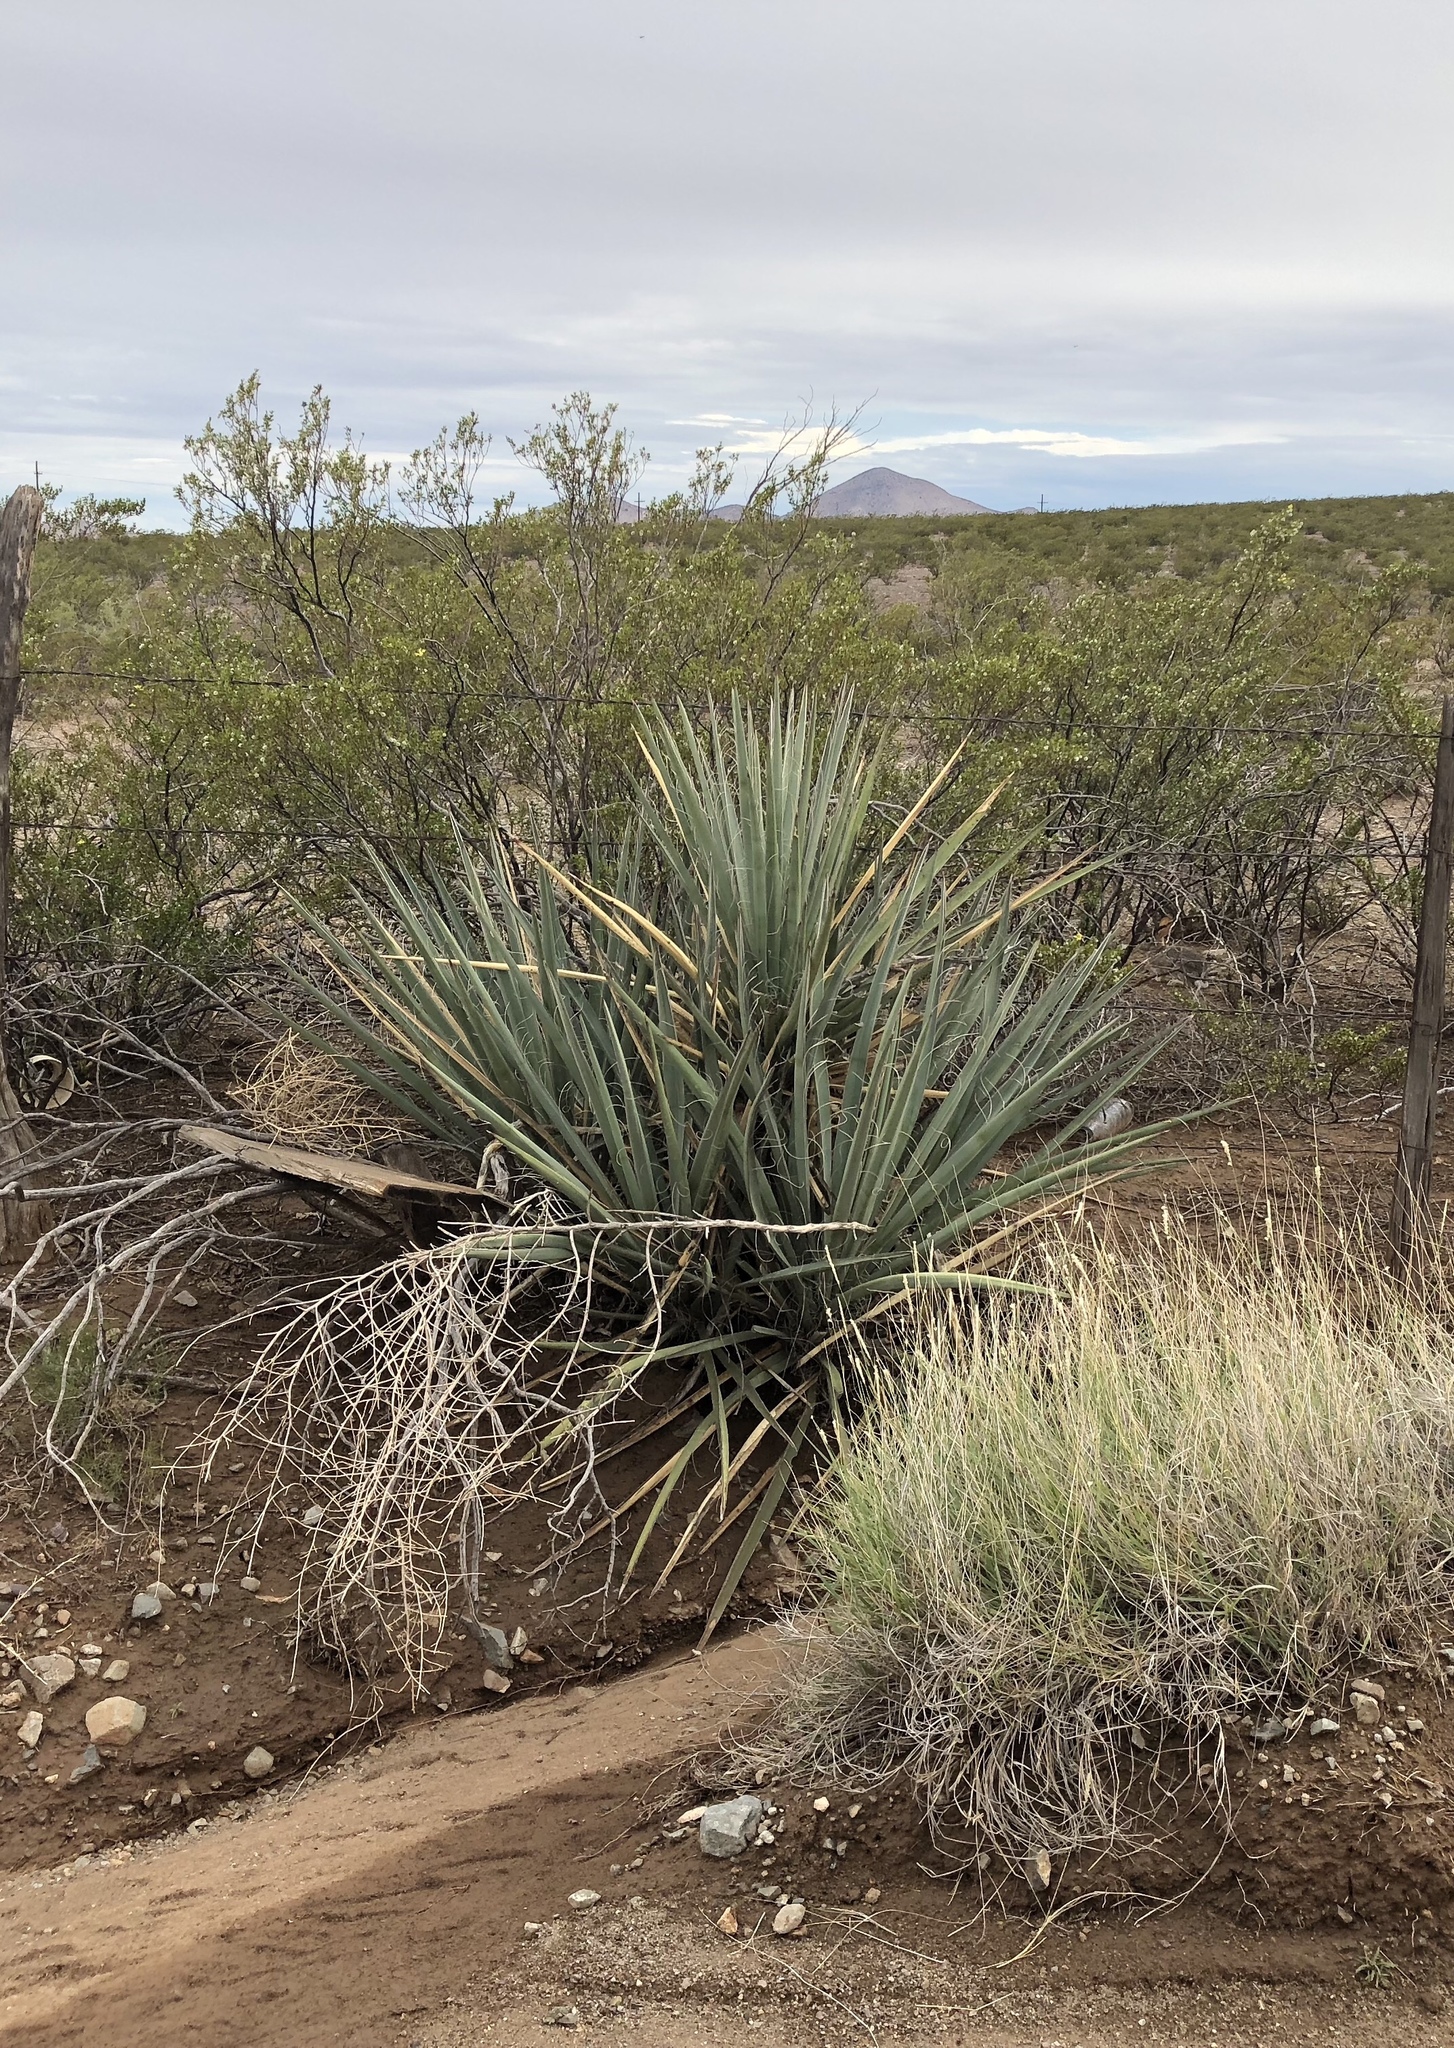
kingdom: Plantae
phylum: Tracheophyta
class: Liliopsida
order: Asparagales
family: Asparagaceae
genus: Yucca
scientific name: Yucca baccata
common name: Banana yucca
